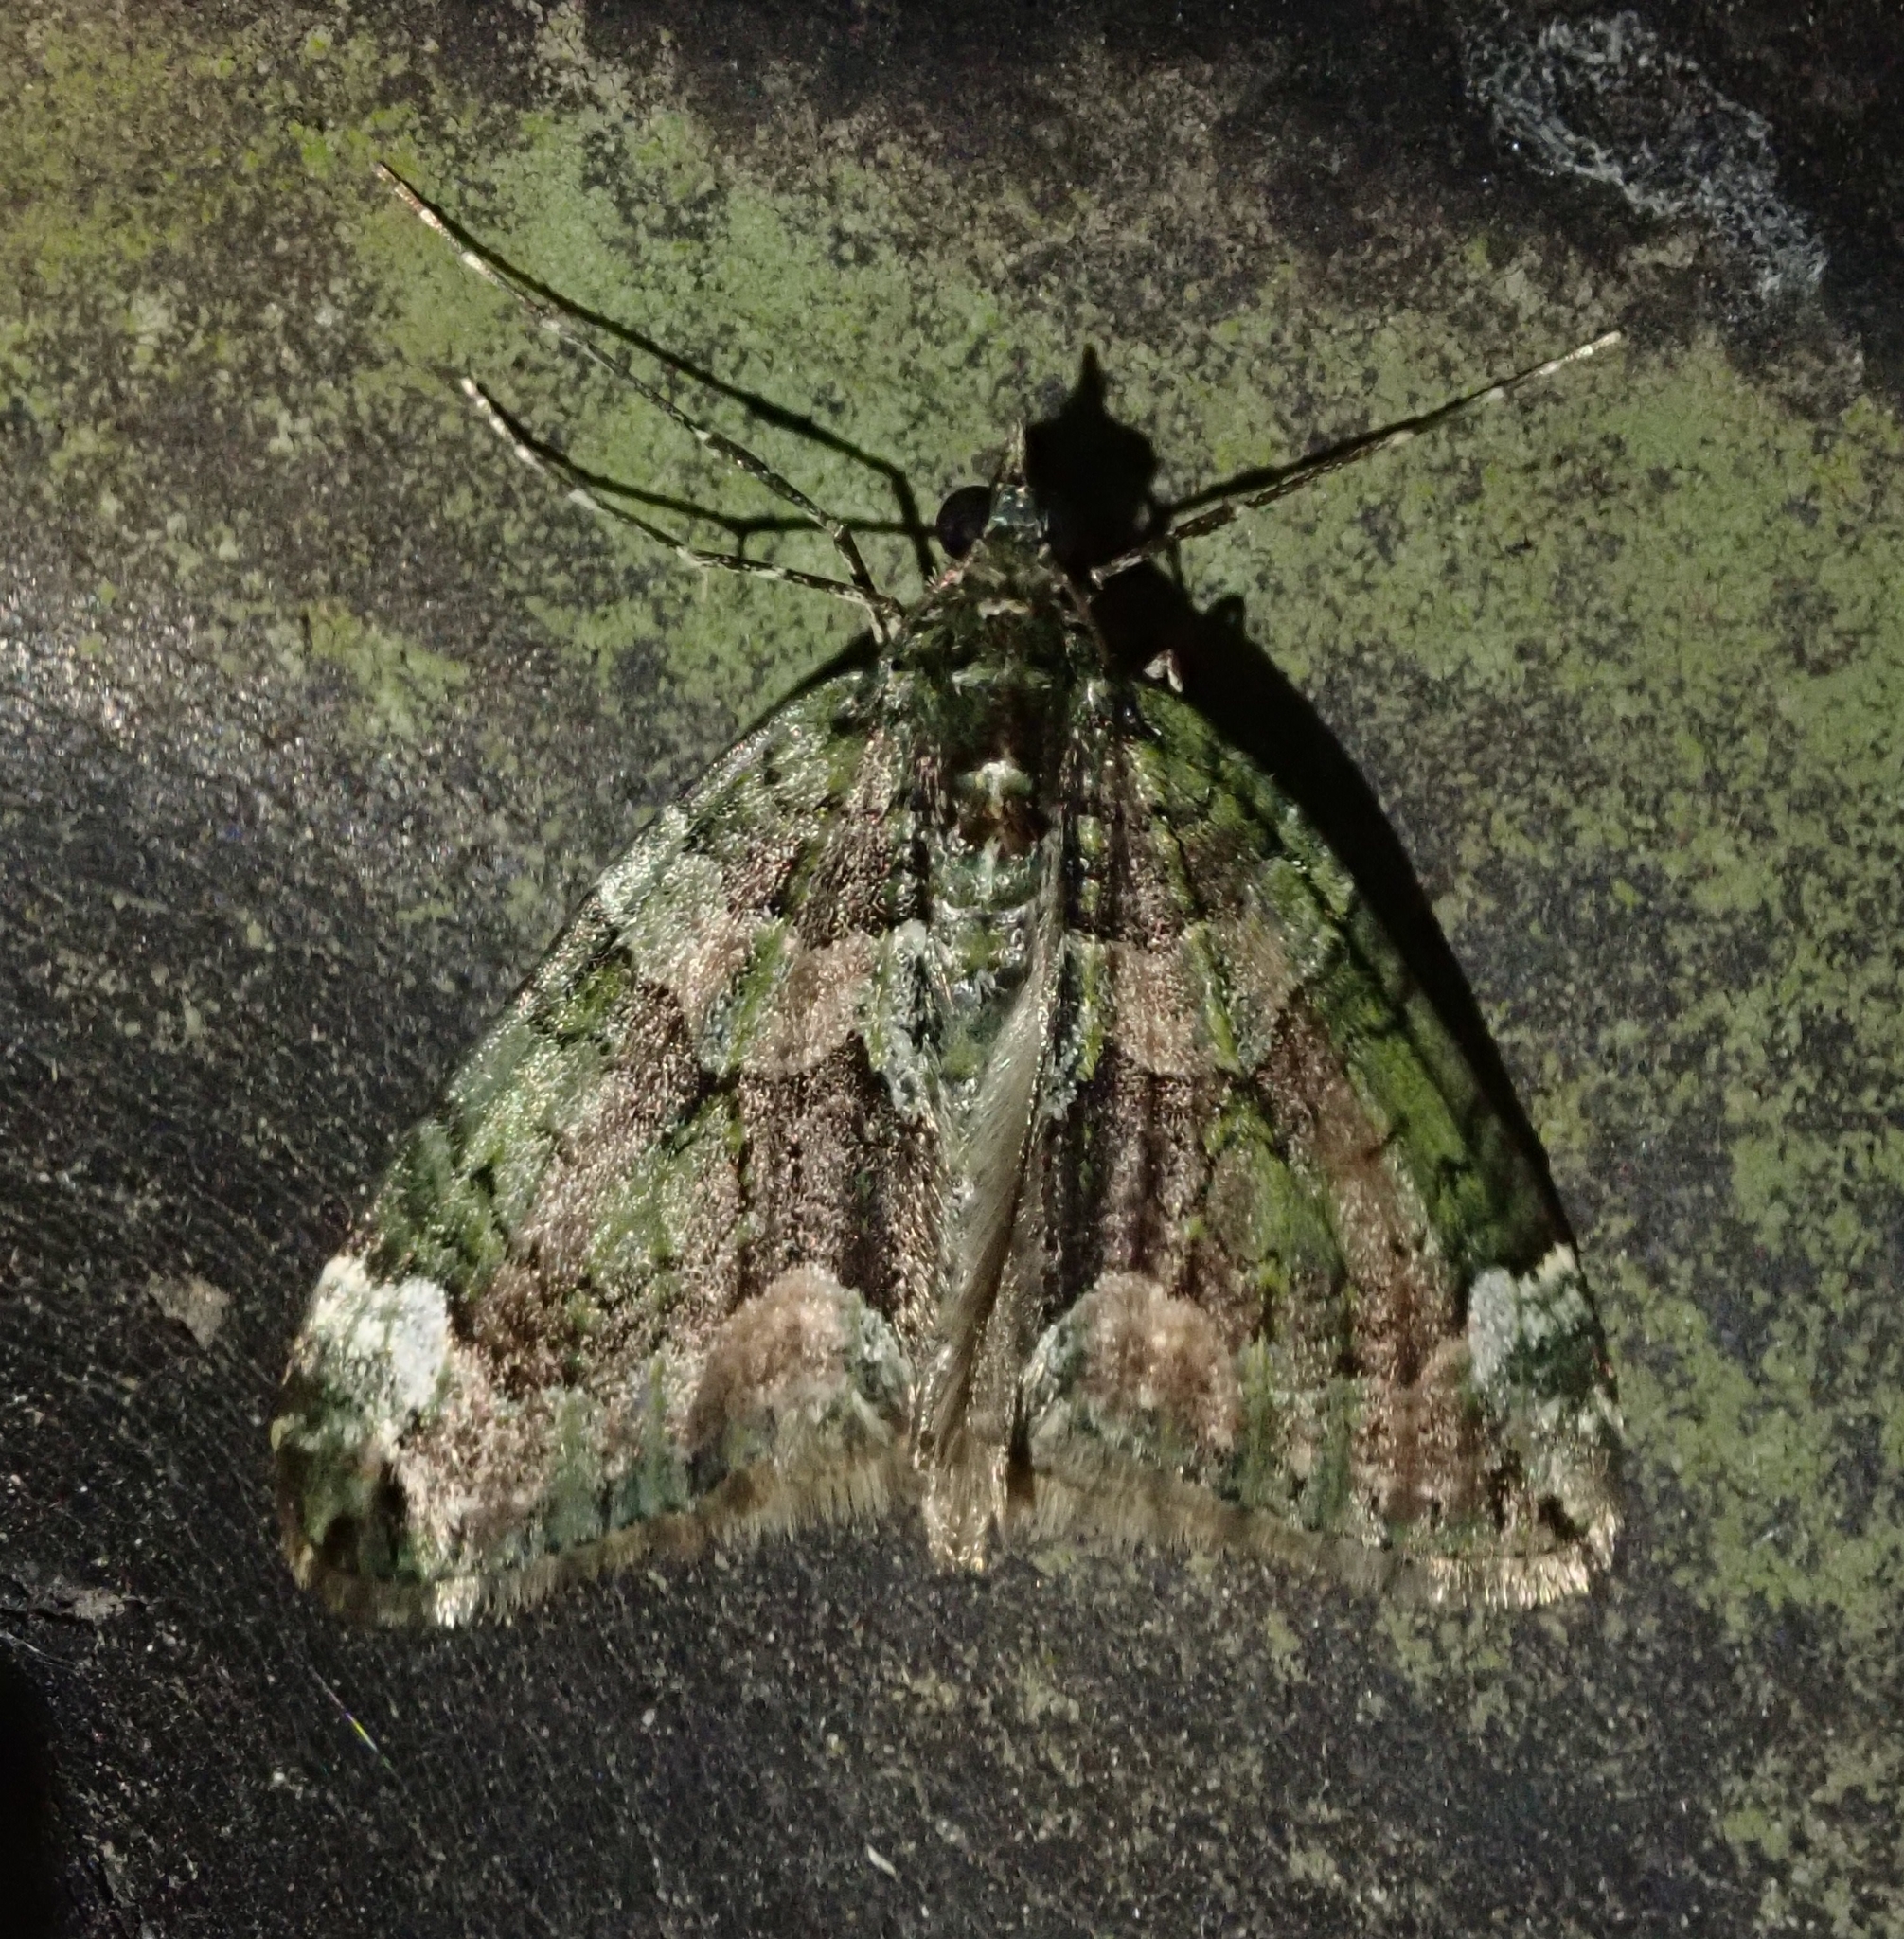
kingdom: Animalia
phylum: Arthropoda
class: Insecta
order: Lepidoptera
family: Geometridae
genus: Chloroclysta
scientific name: Chloroclysta siterata
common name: Red-green carpet
